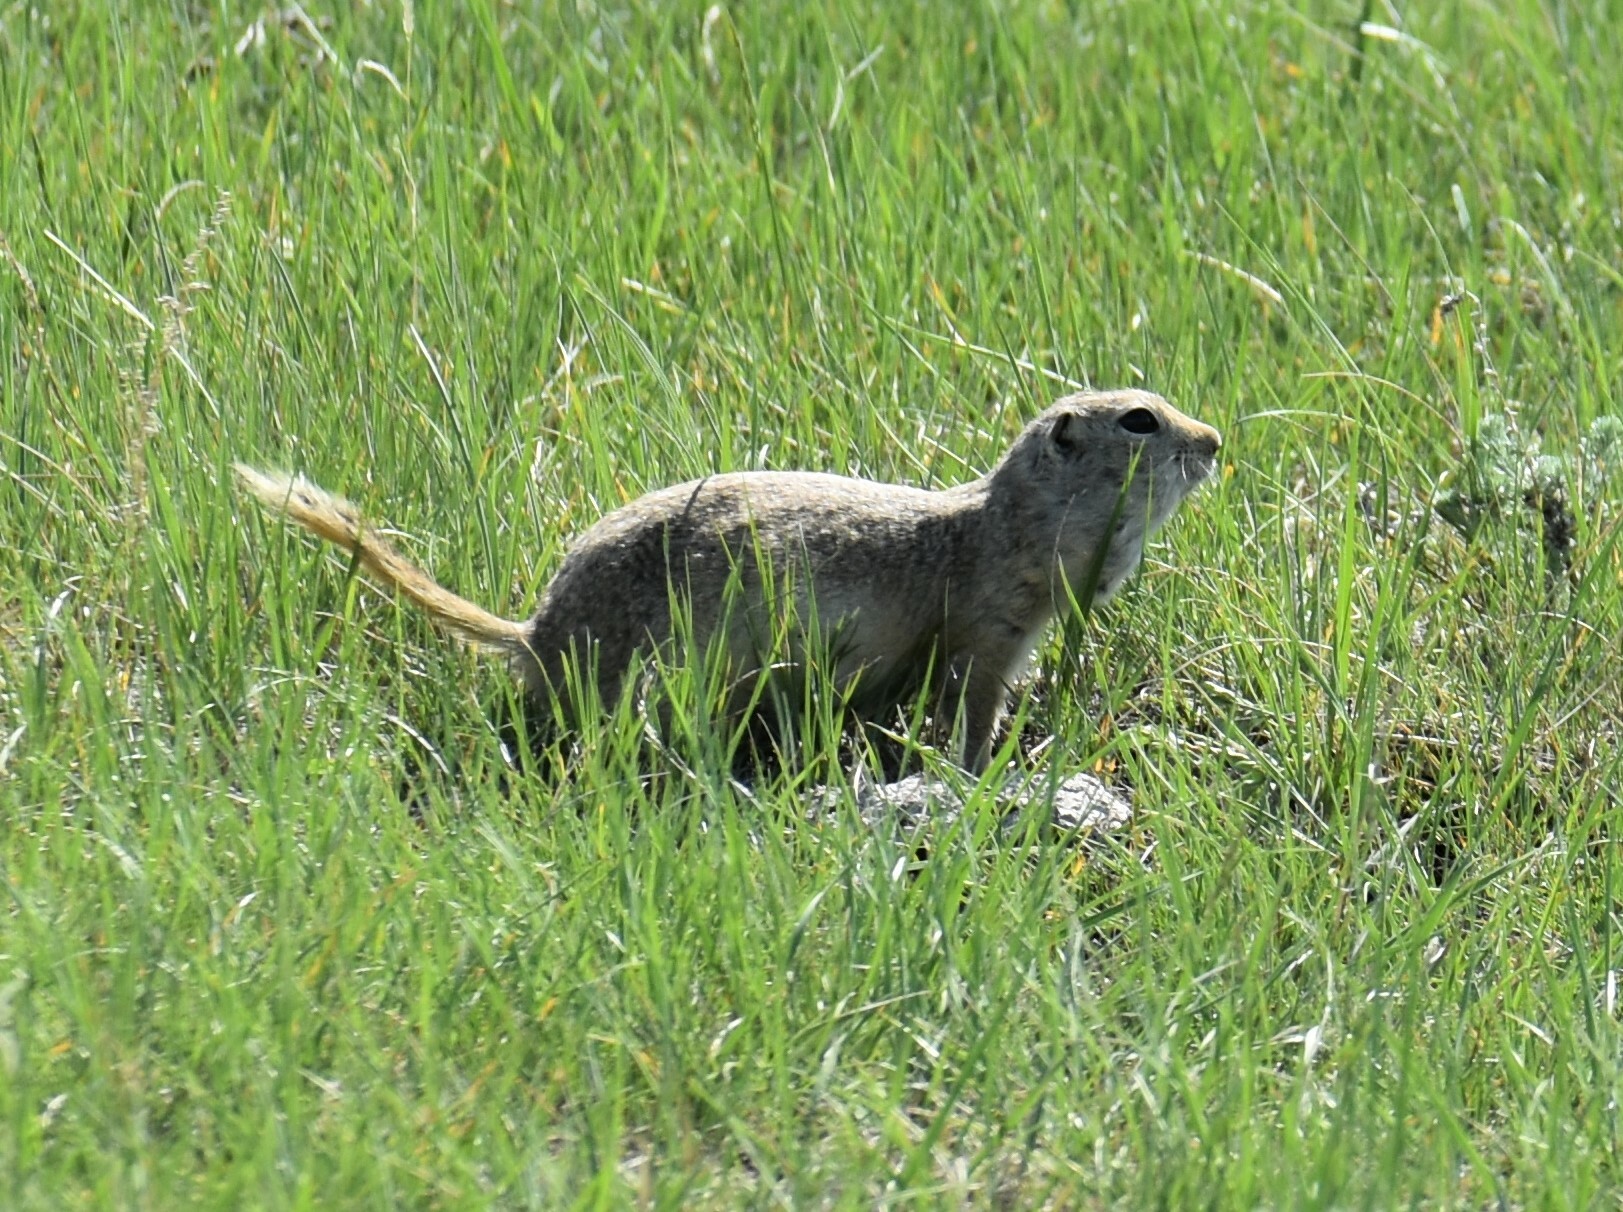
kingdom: Animalia
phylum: Chordata
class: Mammalia
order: Rodentia
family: Sciuridae
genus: Urocitellus
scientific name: Urocitellus richardsonii
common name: Richardson's ground squirrel
